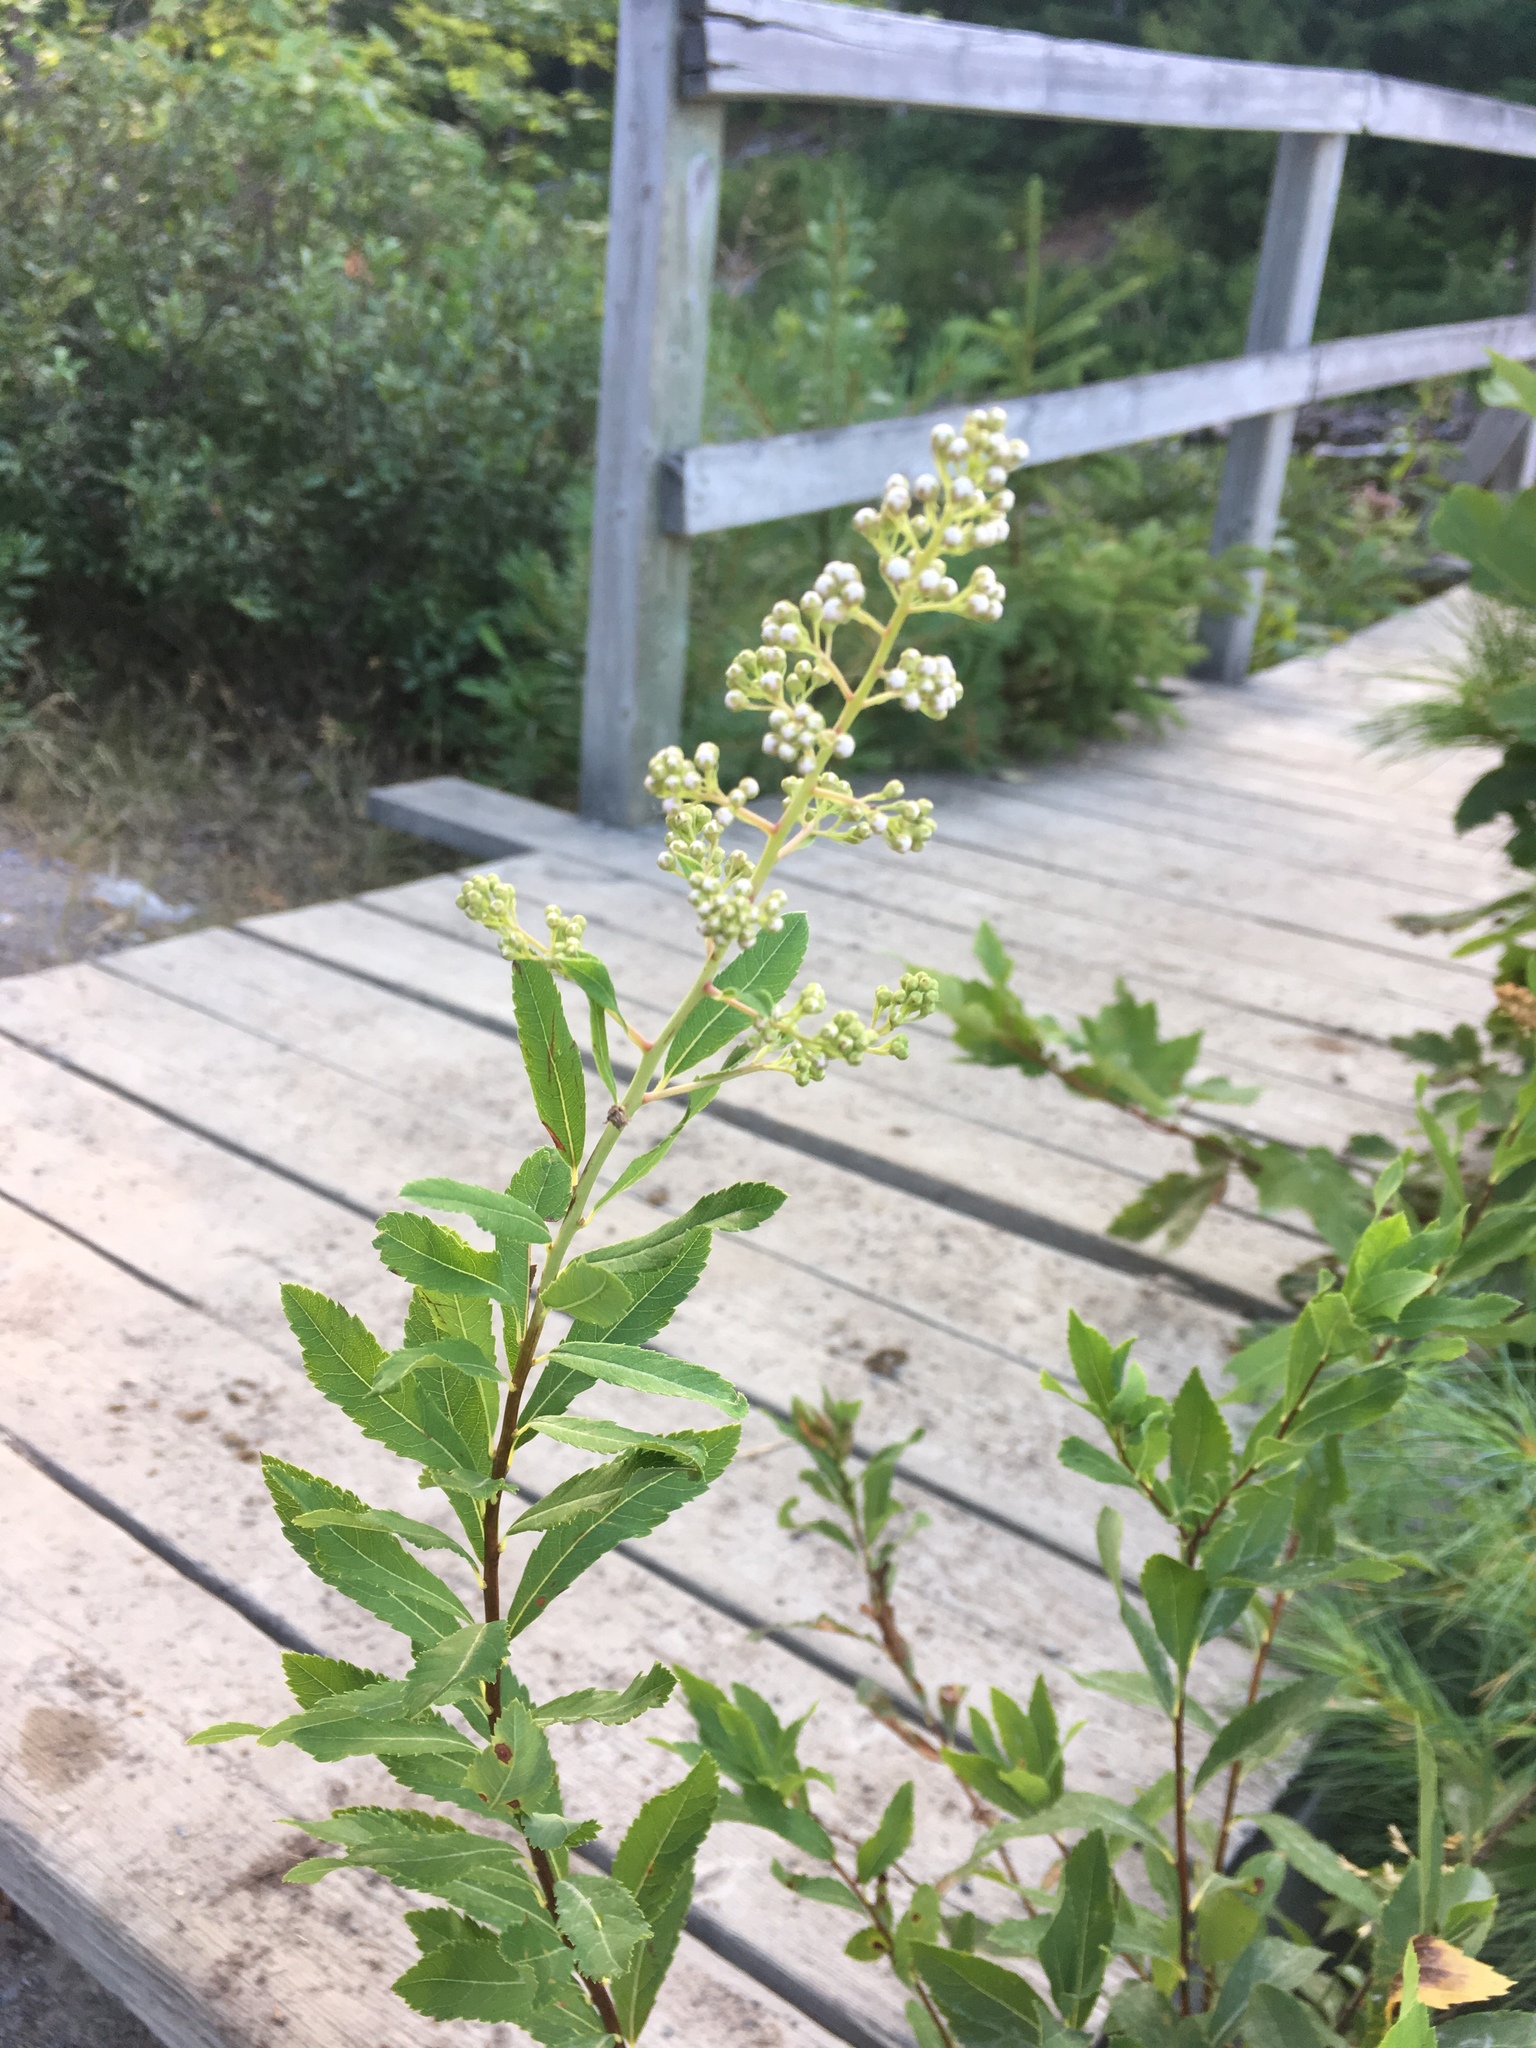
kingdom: Plantae
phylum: Tracheophyta
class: Magnoliopsida
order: Rosales
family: Rosaceae
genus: Spiraea
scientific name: Spiraea alba
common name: Pale bridewort
